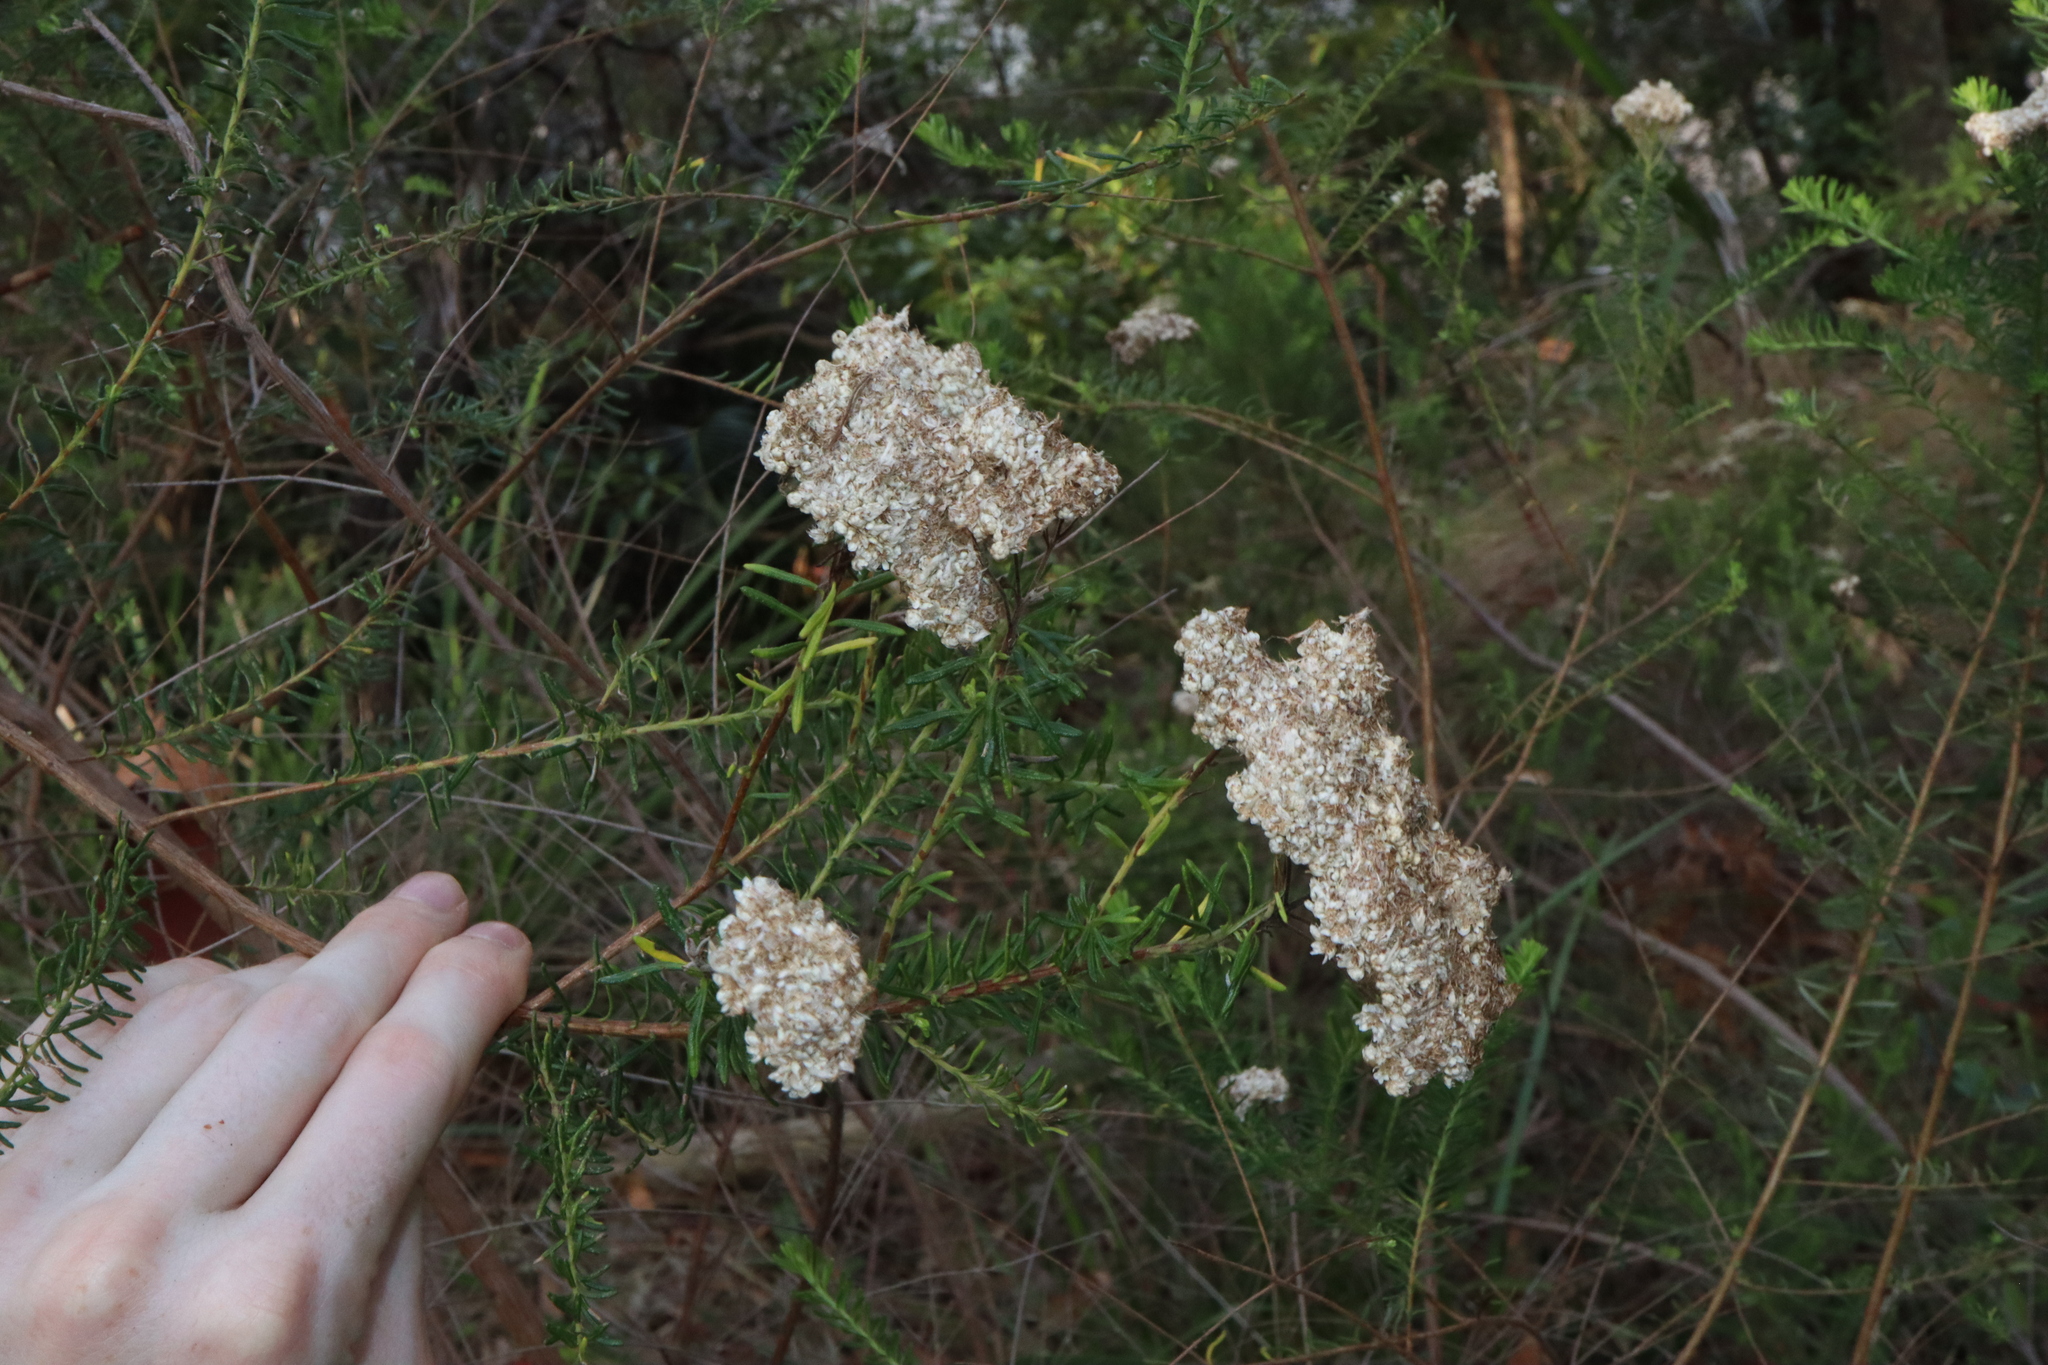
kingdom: Plantae
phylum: Tracheophyta
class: Magnoliopsida
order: Asterales
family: Asteraceae
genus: Ozothamnus
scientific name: Ozothamnus diosmifolius
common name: White-dogwood
